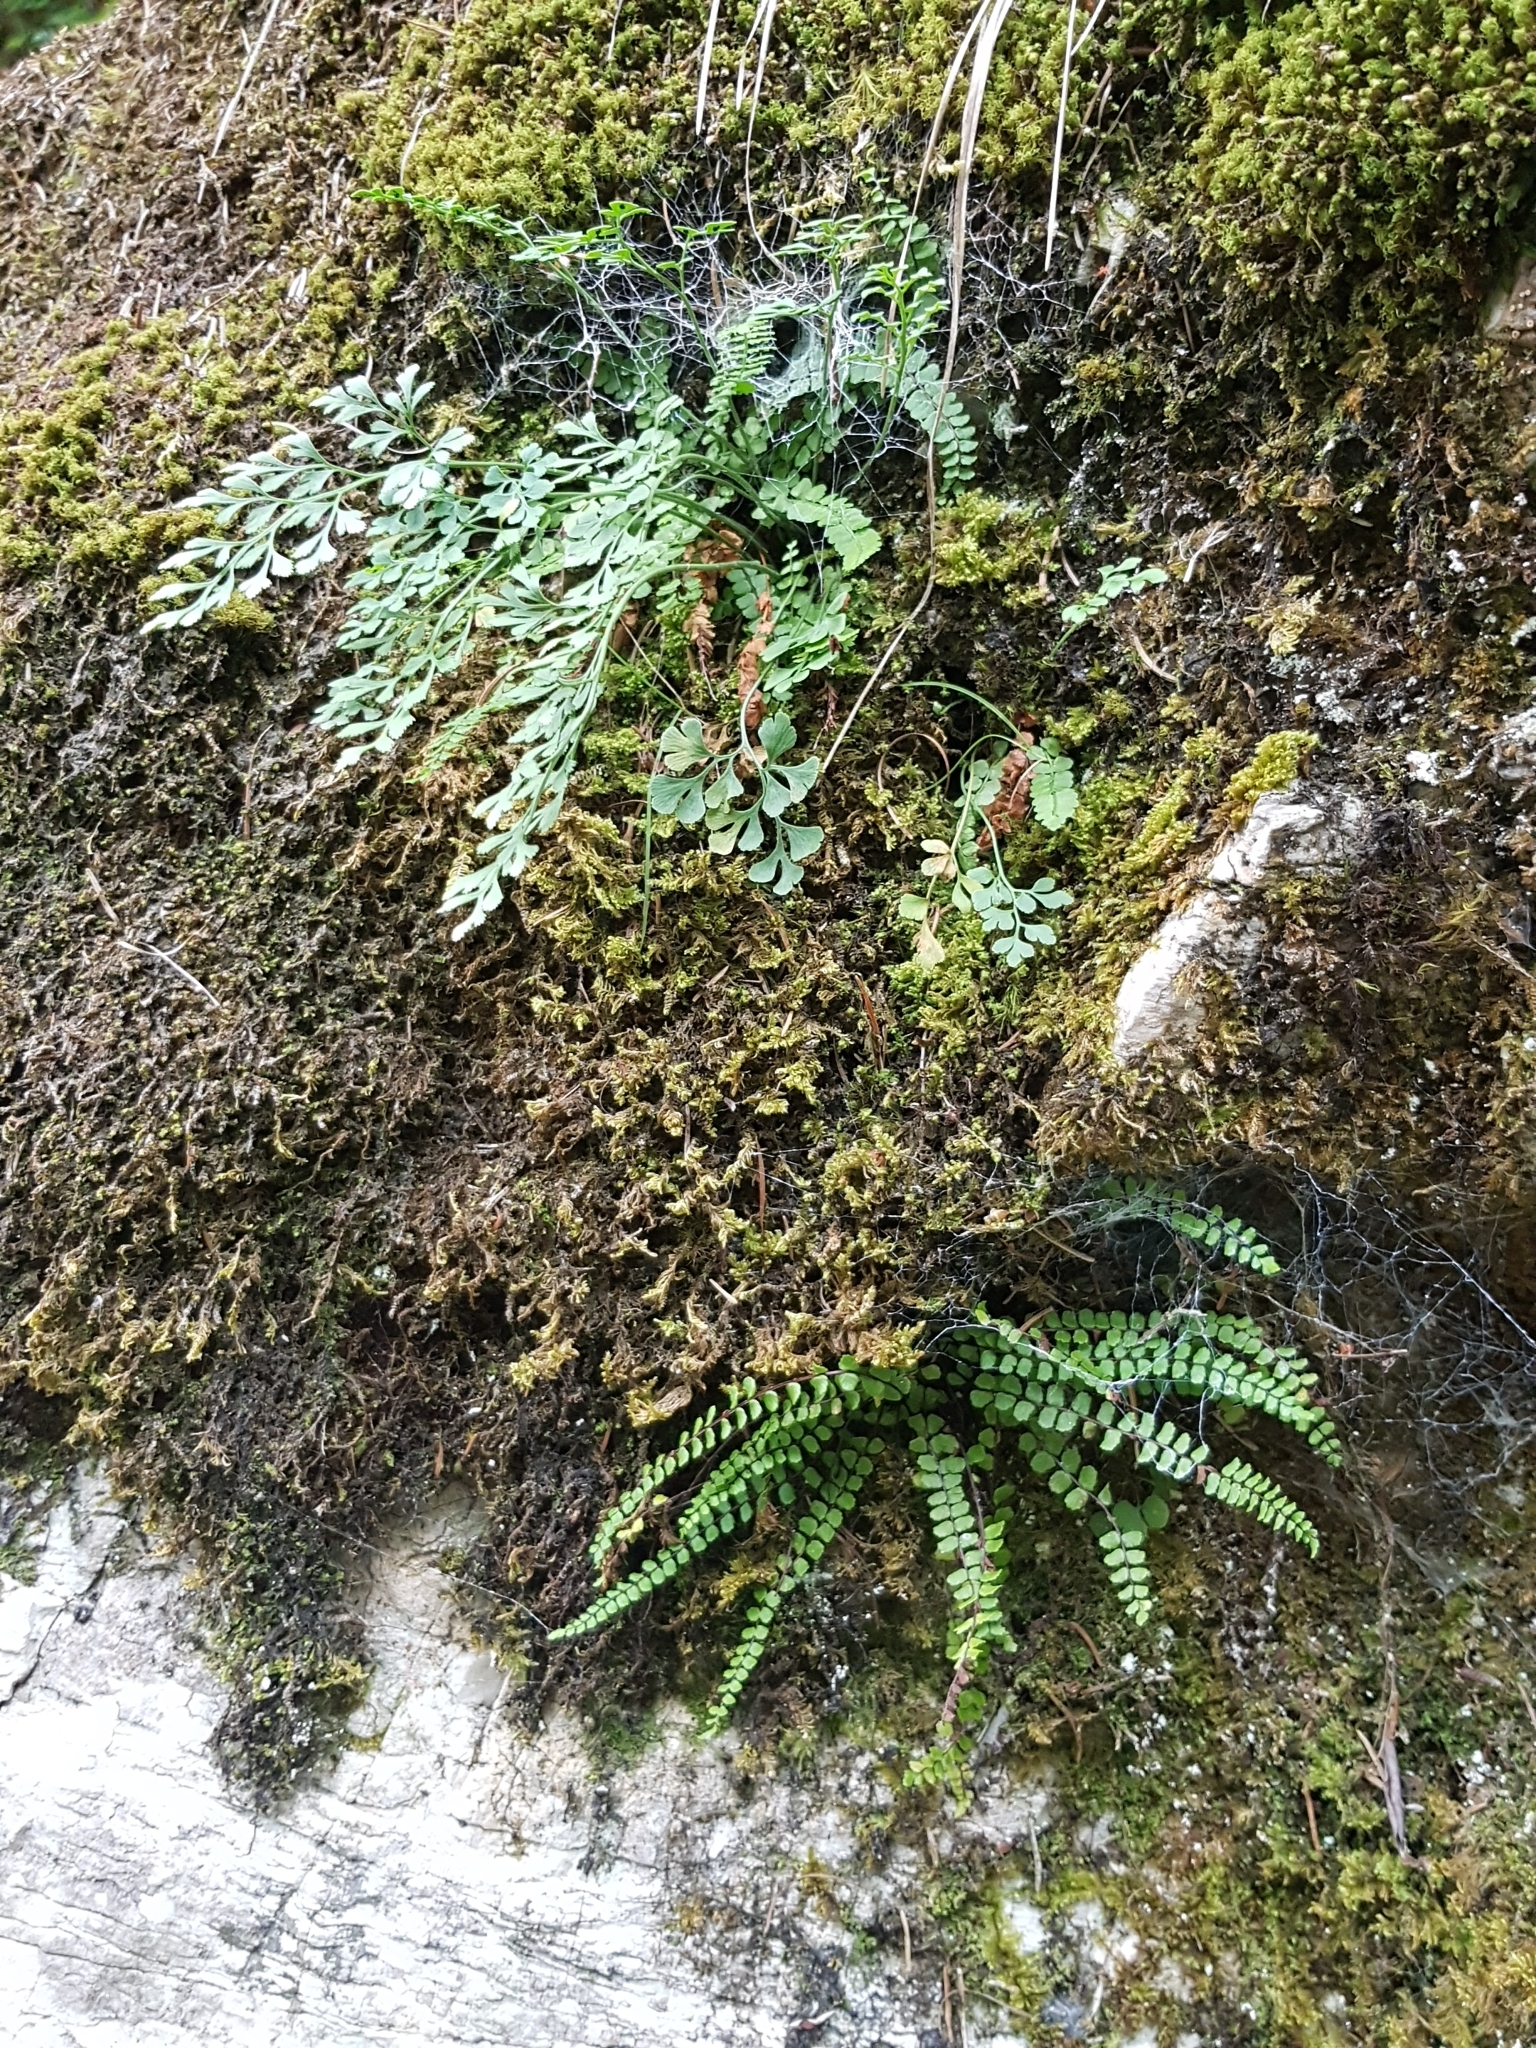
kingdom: Plantae
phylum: Tracheophyta
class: Polypodiopsida
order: Polypodiales
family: Aspleniaceae
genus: Asplenium
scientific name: Asplenium viride
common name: Green spleenwort
